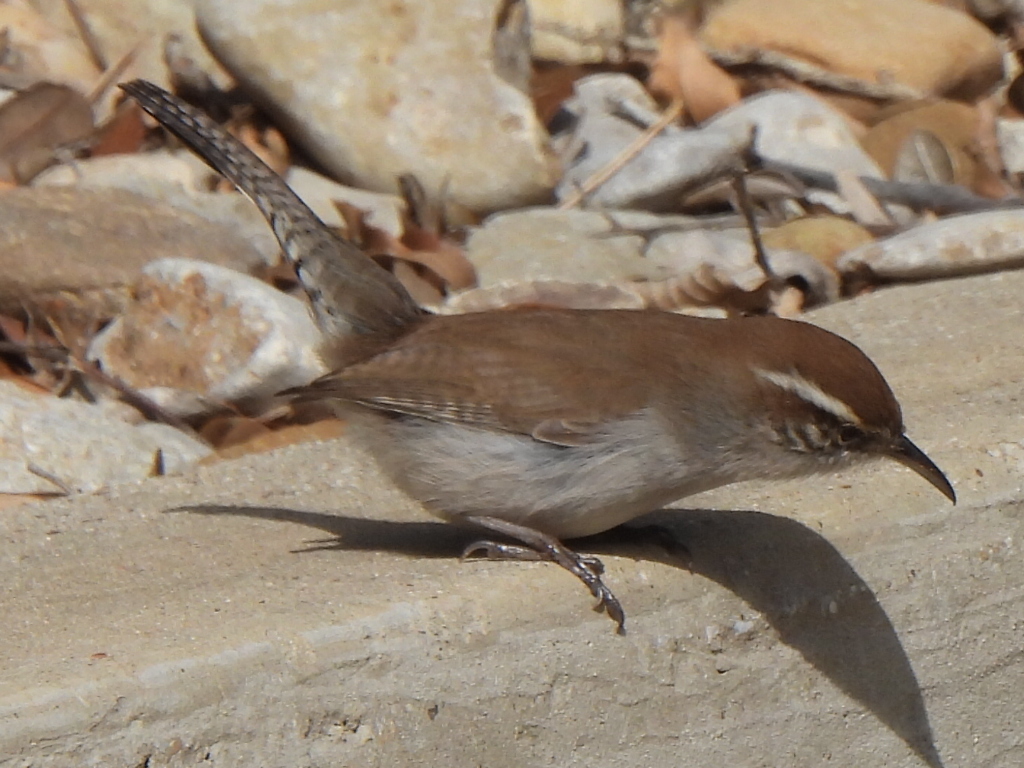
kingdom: Animalia
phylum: Chordata
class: Aves
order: Passeriformes
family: Troglodytidae
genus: Thryomanes
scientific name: Thryomanes bewickii
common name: Bewick's wren
